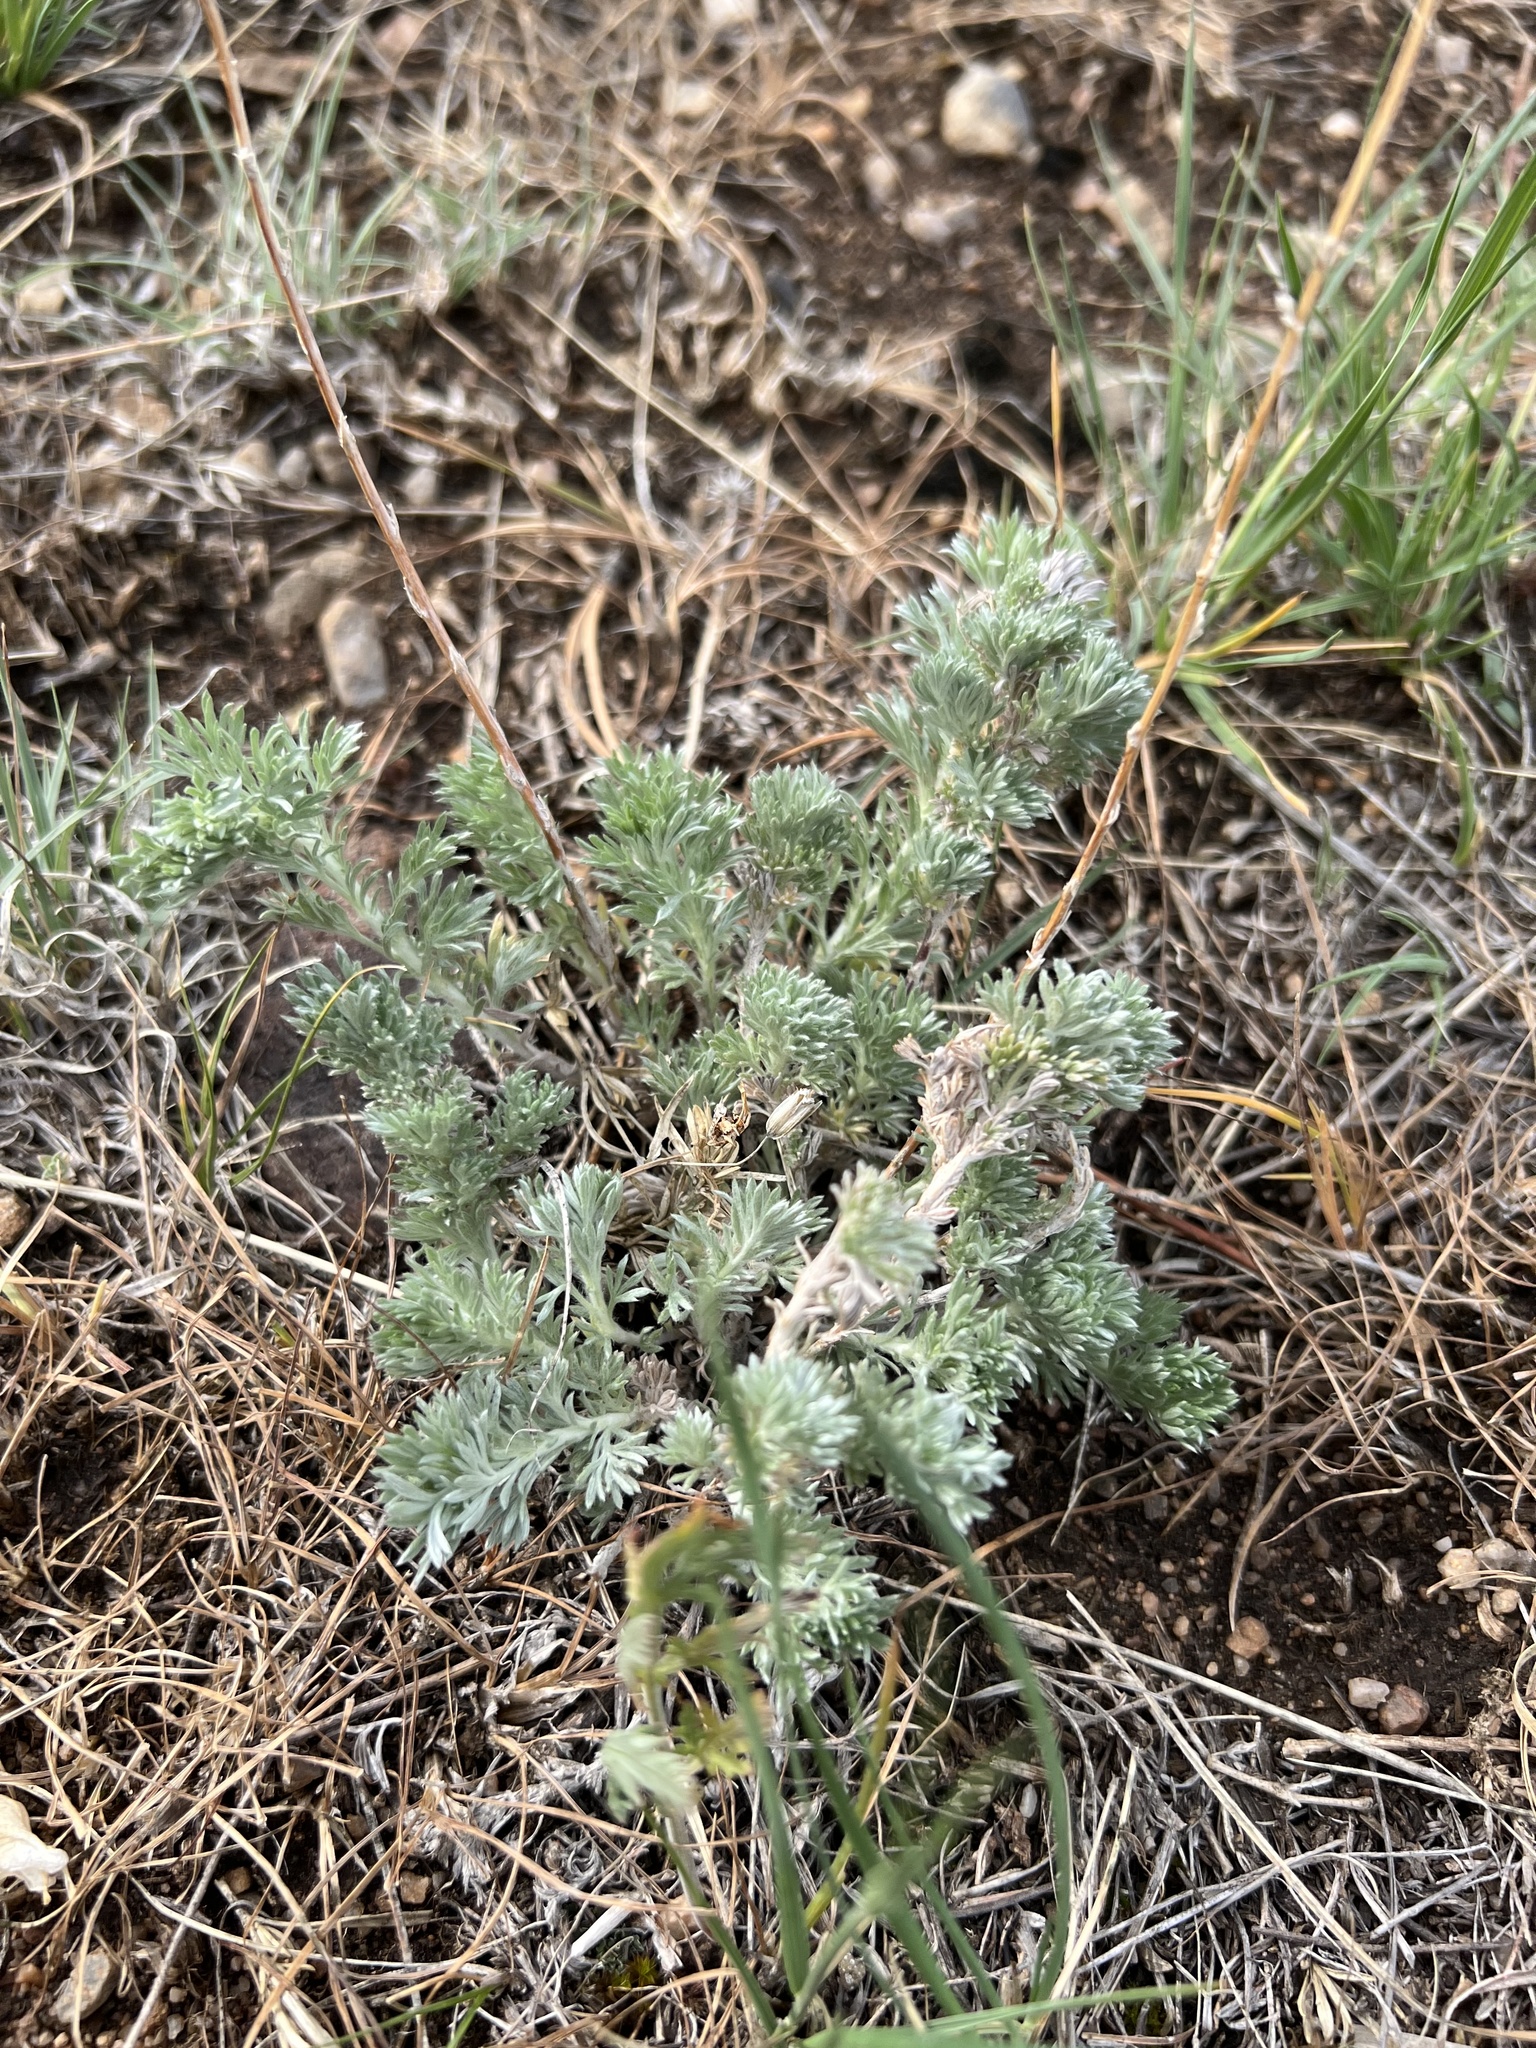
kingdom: Plantae
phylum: Tracheophyta
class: Magnoliopsida
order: Asterales
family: Asteraceae
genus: Artemisia
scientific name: Artemisia frigida
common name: Prairie sagewort
